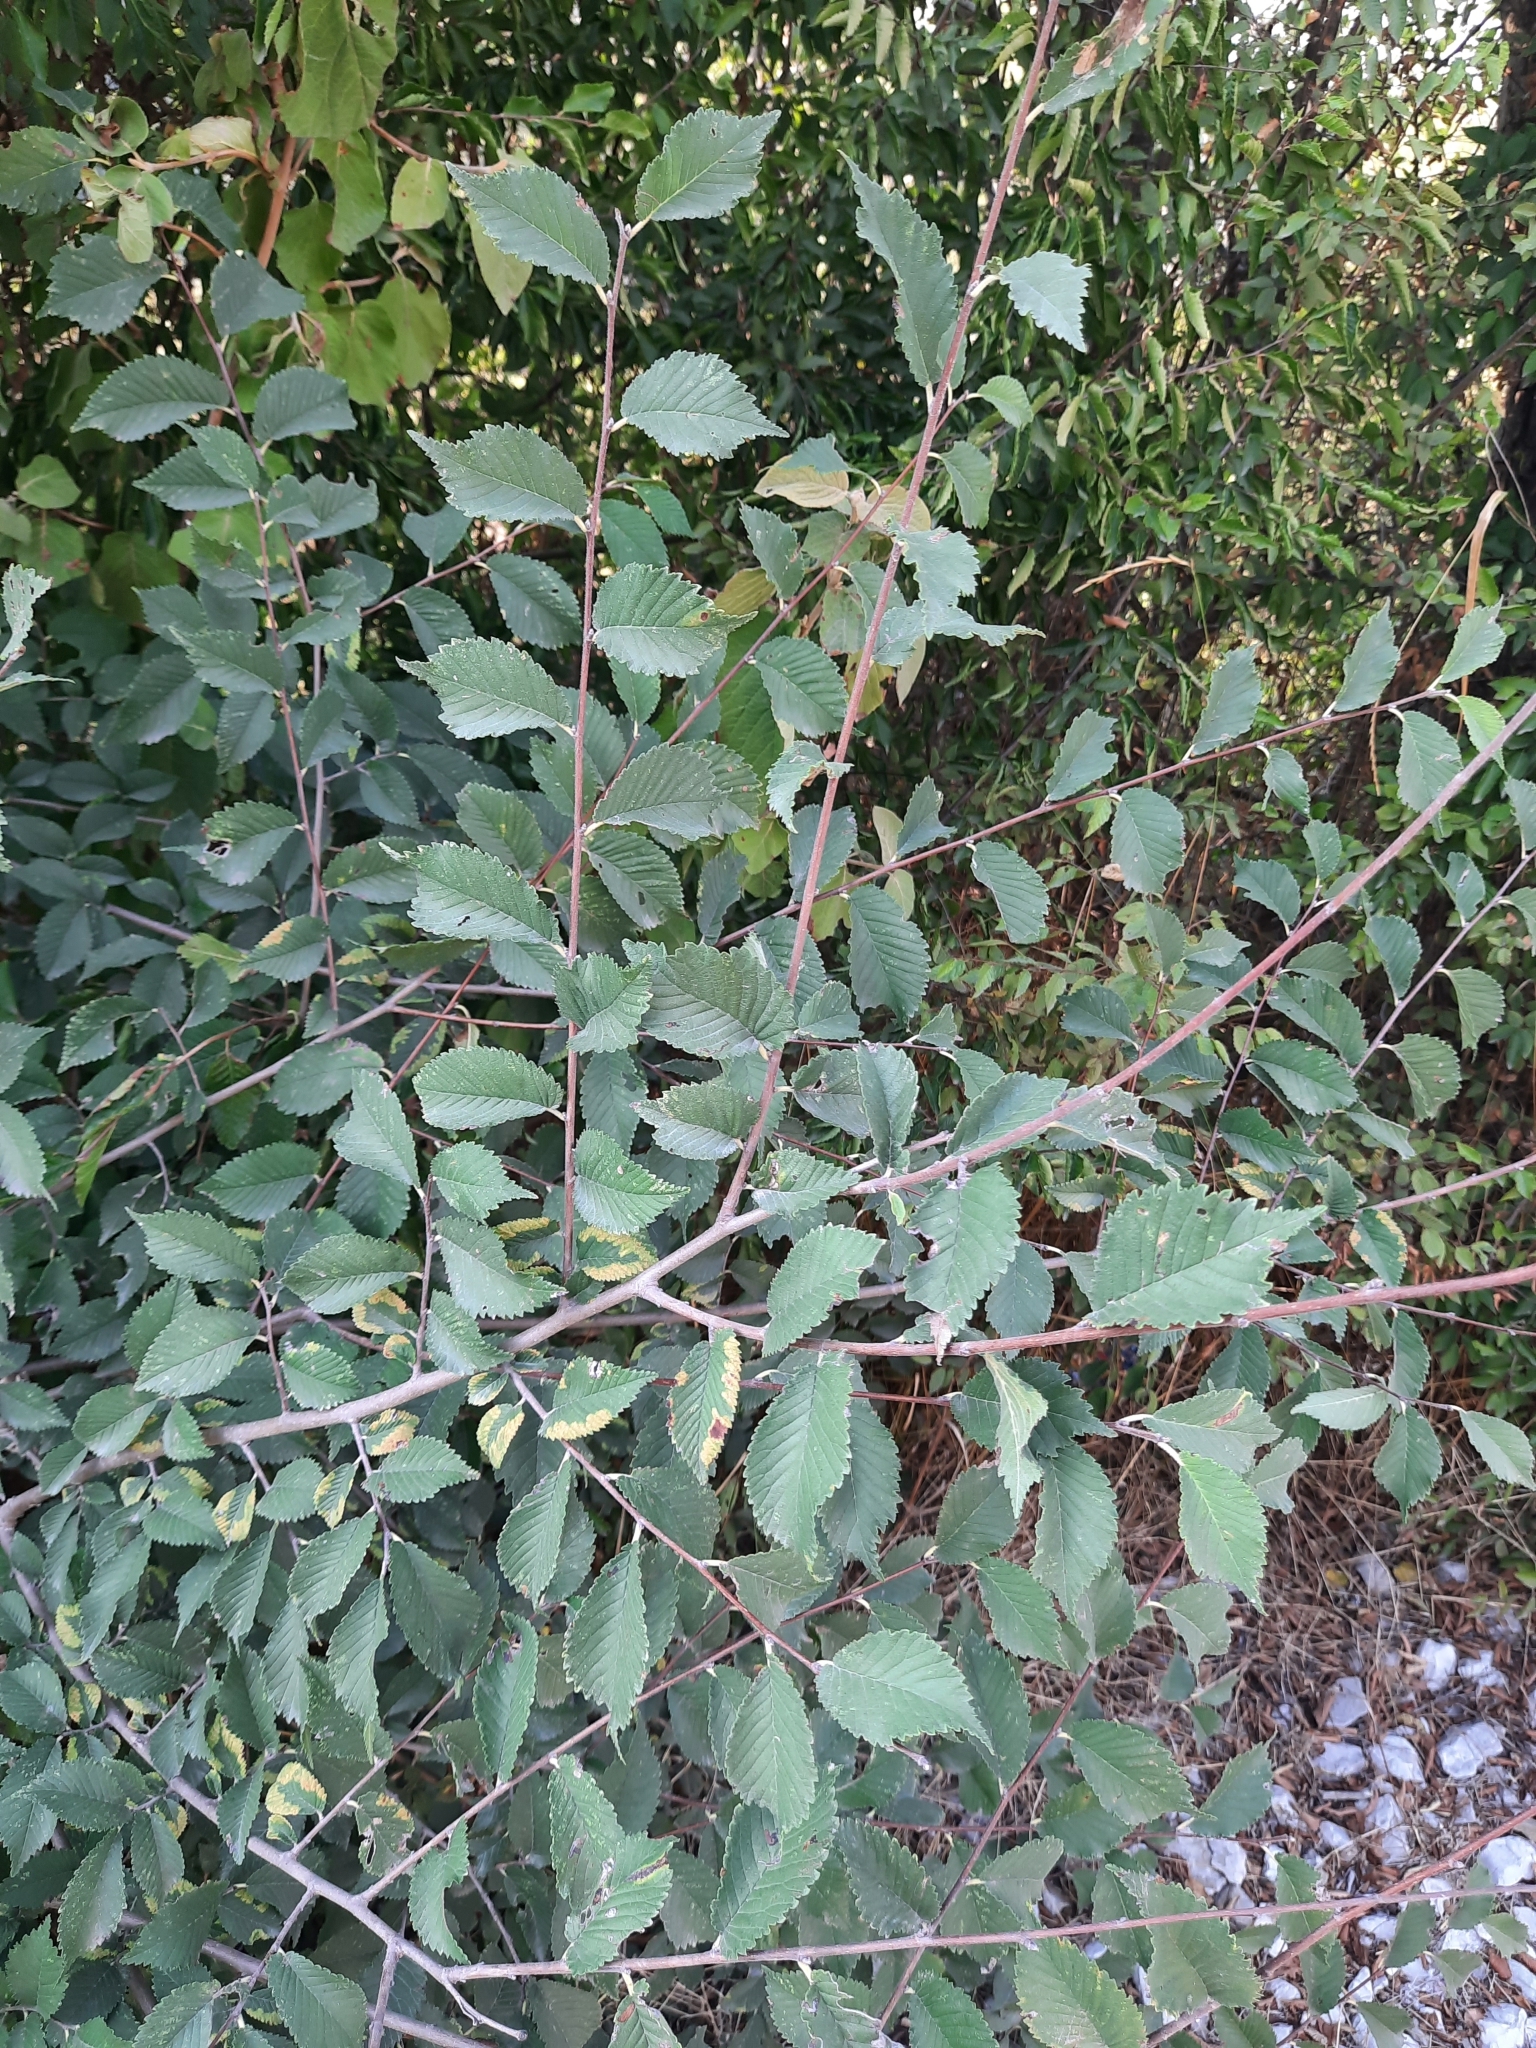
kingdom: Plantae
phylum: Tracheophyta
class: Magnoliopsida
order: Rosales
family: Ulmaceae
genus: Ulmus
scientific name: Ulmus minor
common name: Small-leaved elm
